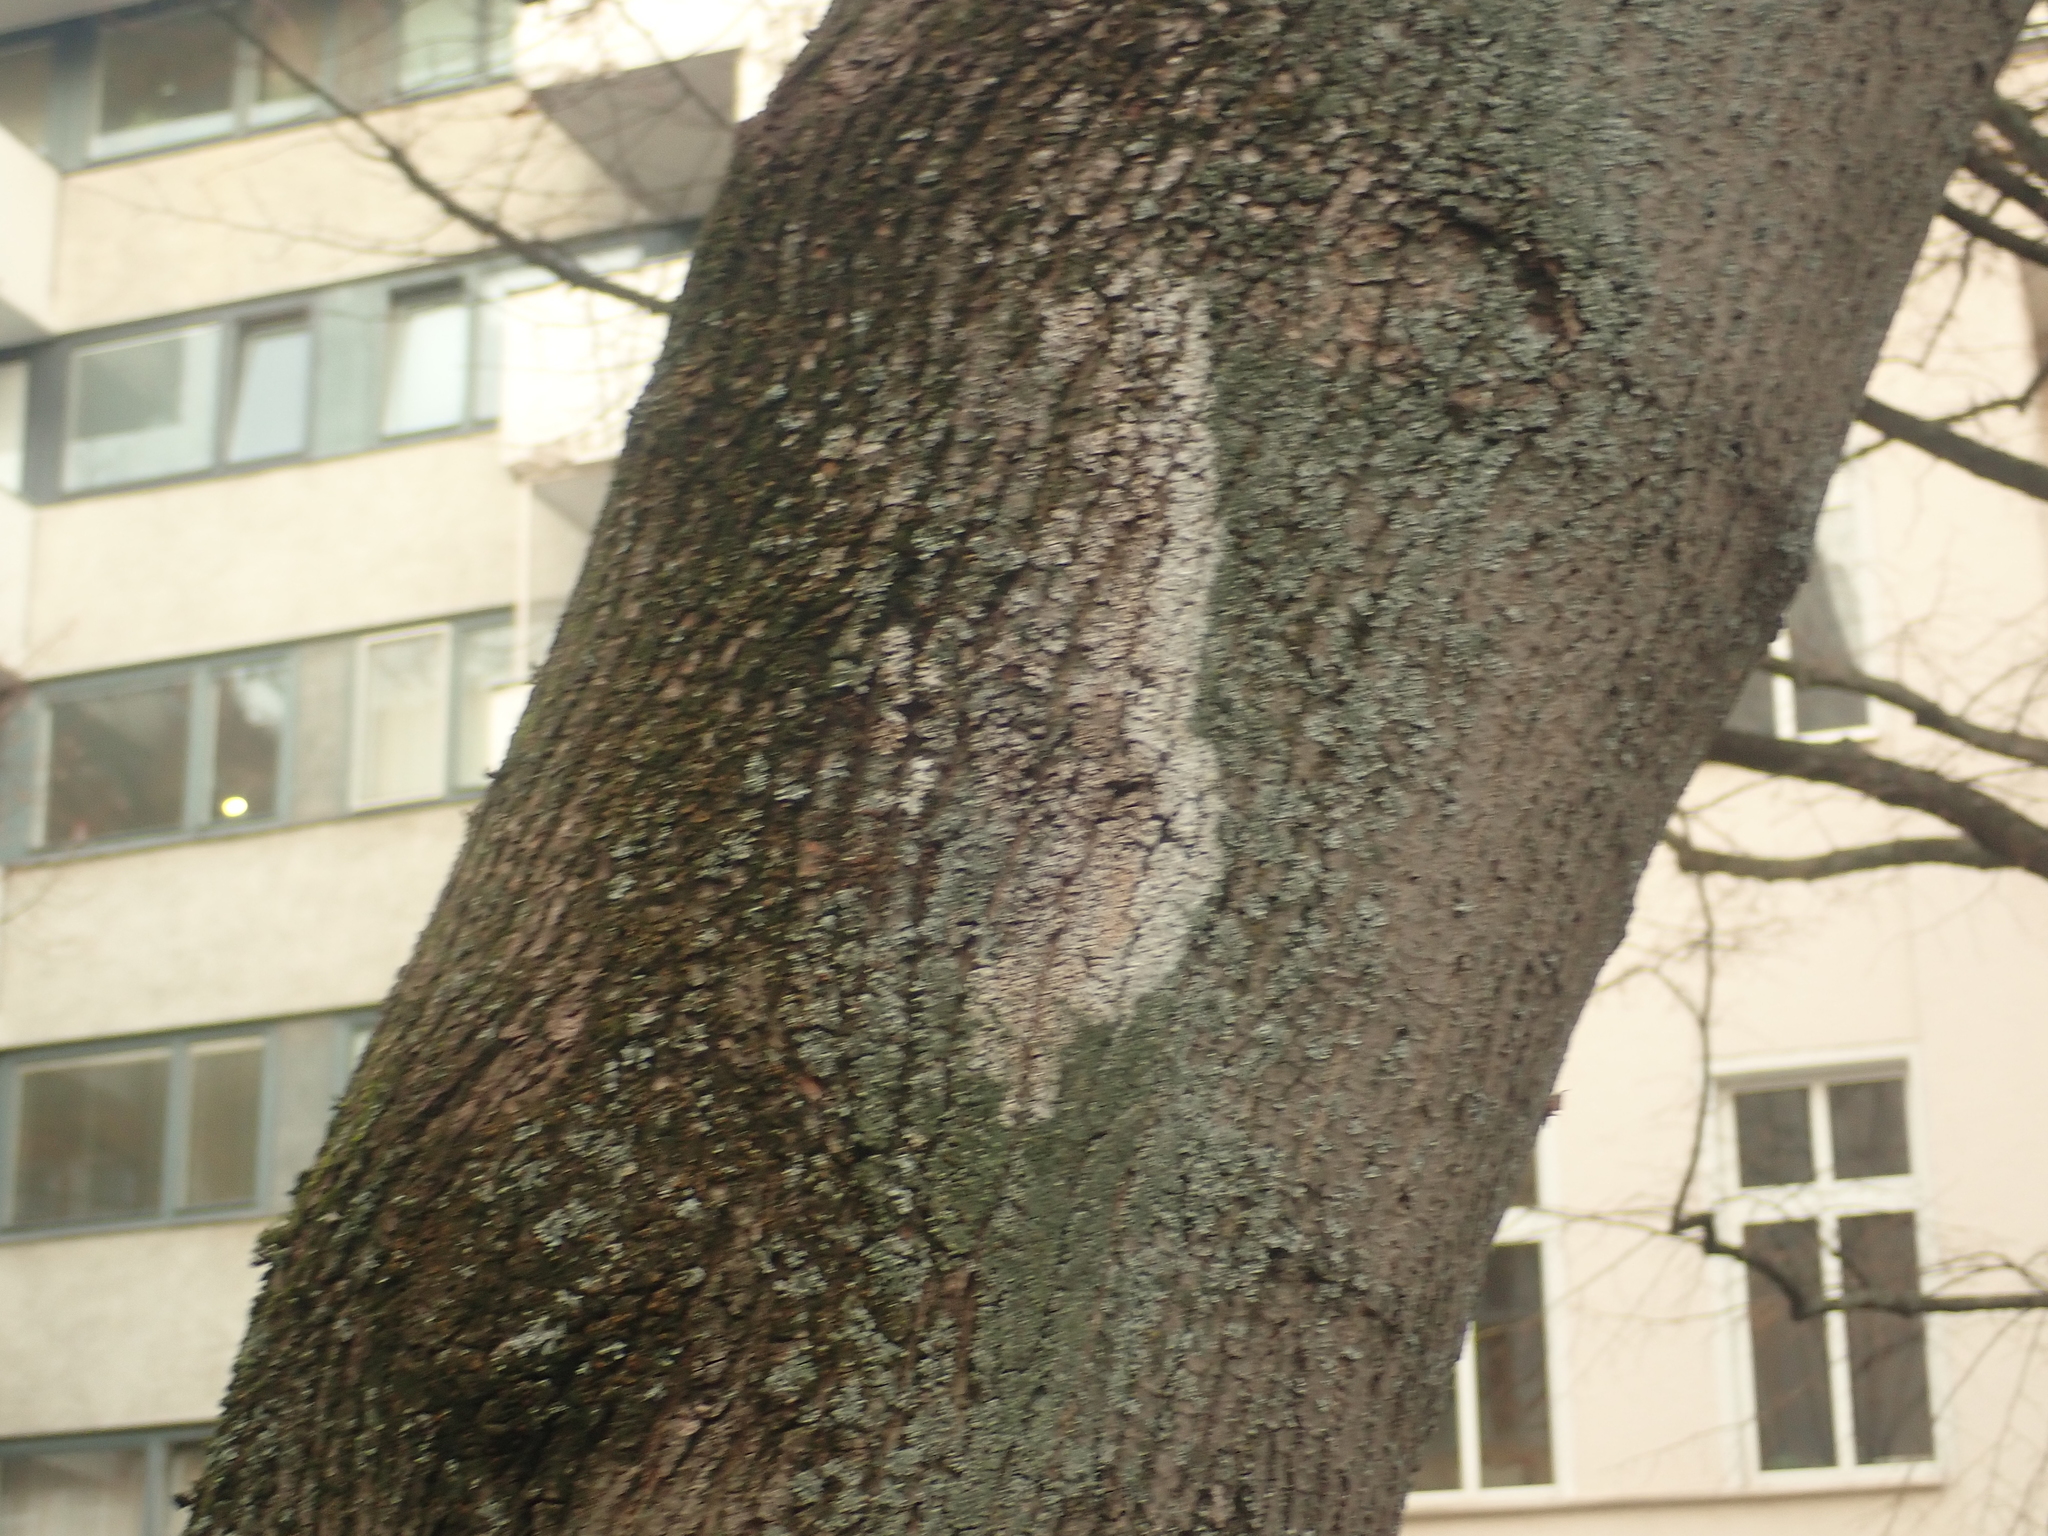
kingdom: Fungi
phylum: Basidiomycota
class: Agaricomycetes
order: Atheliales
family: Atheliaceae
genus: Athelia
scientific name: Athelia arachnoidea
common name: Candelabra duster
